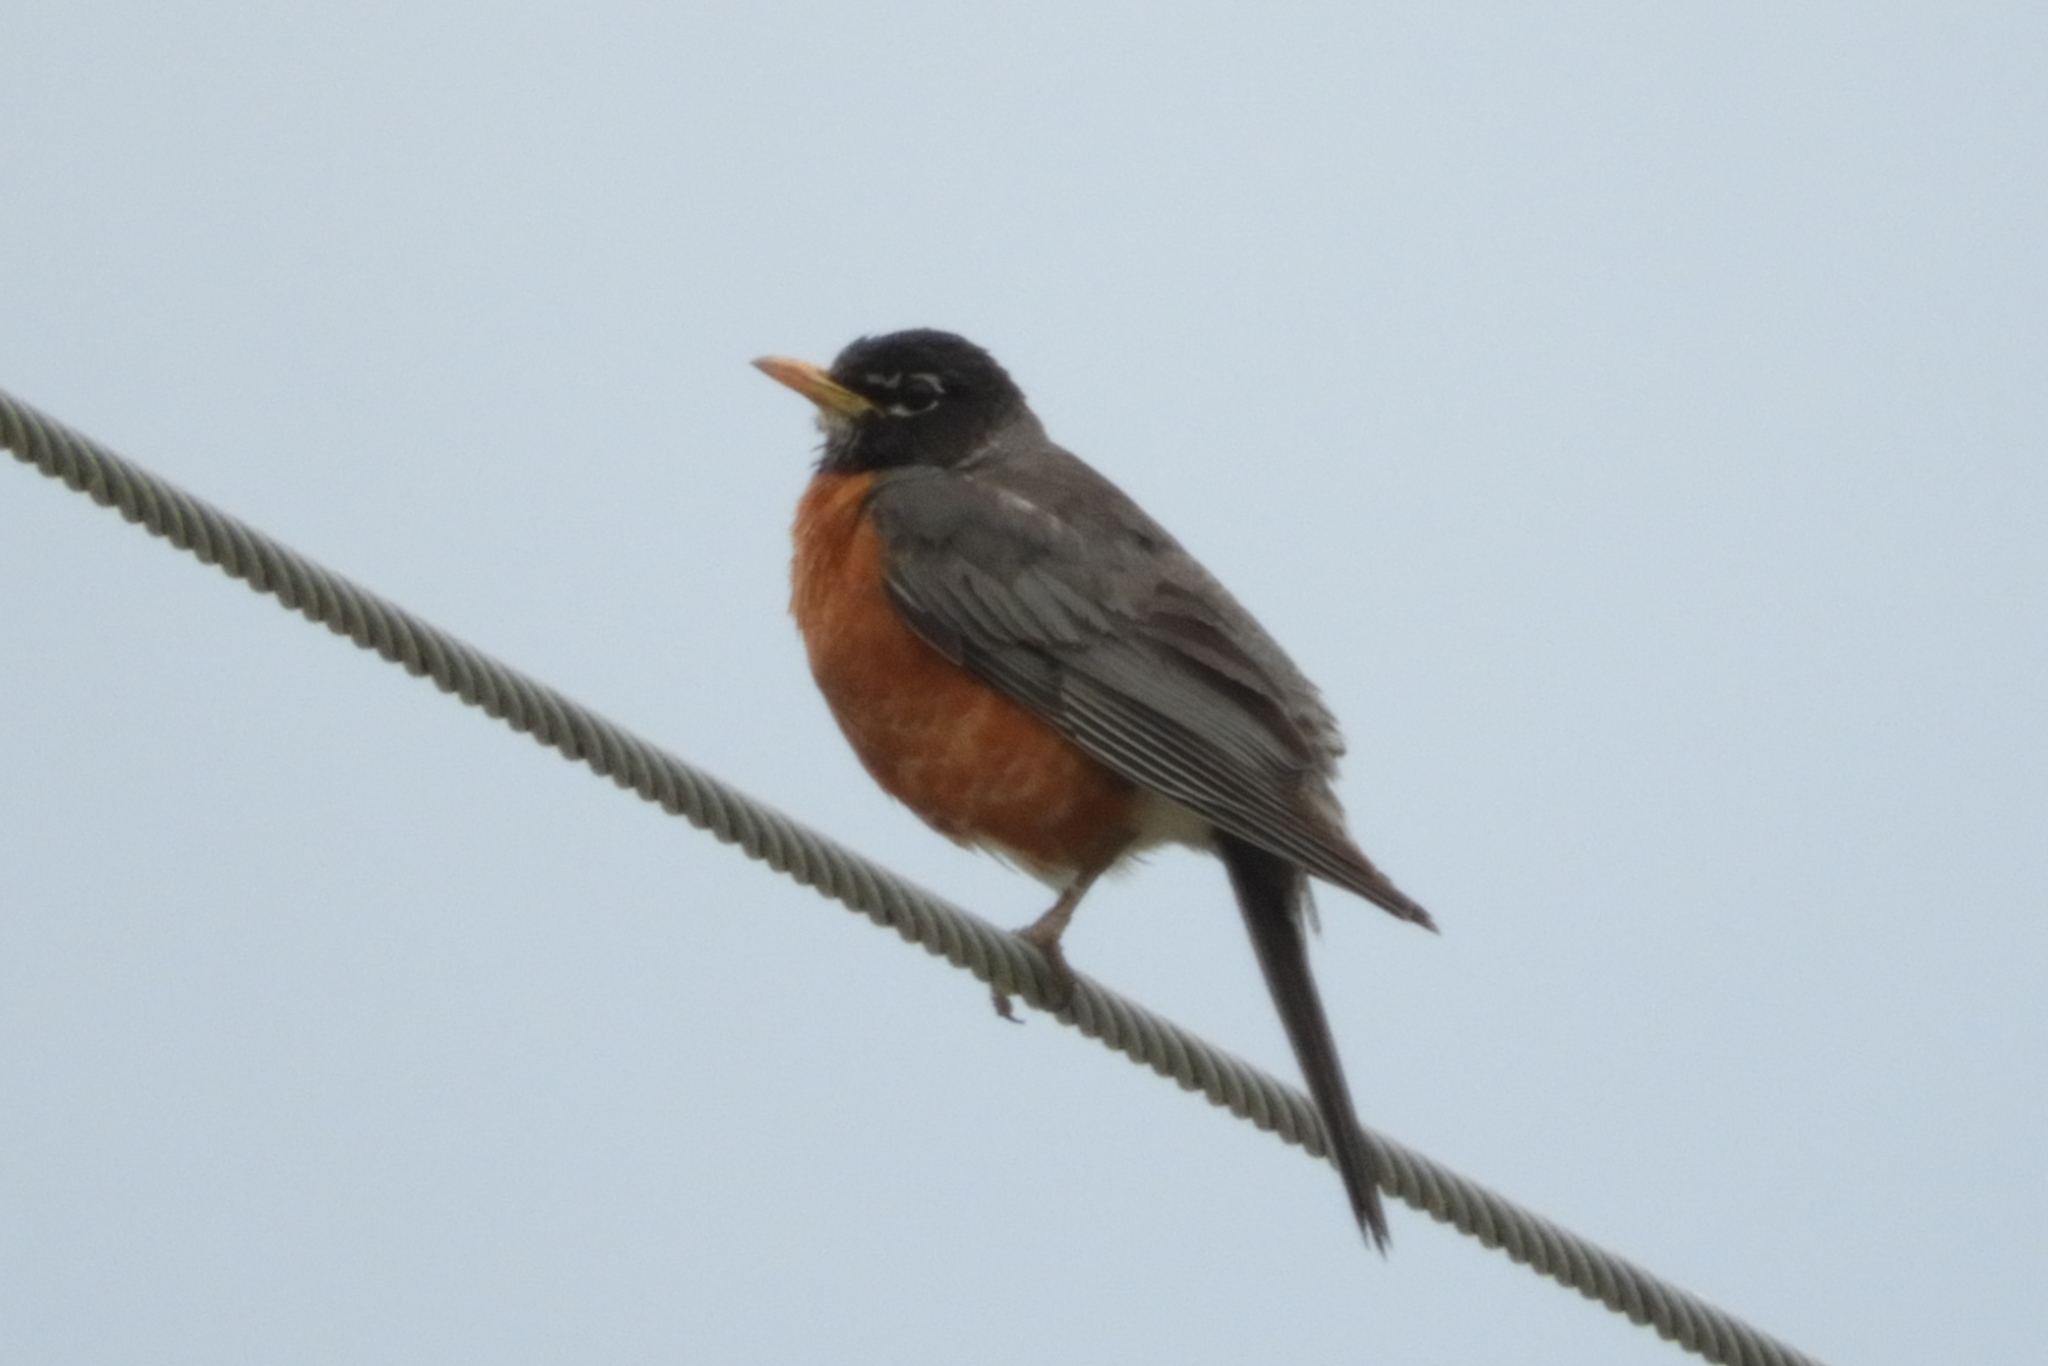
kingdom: Animalia
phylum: Chordata
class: Aves
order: Passeriformes
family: Turdidae
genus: Turdus
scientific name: Turdus migratorius
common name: American robin
